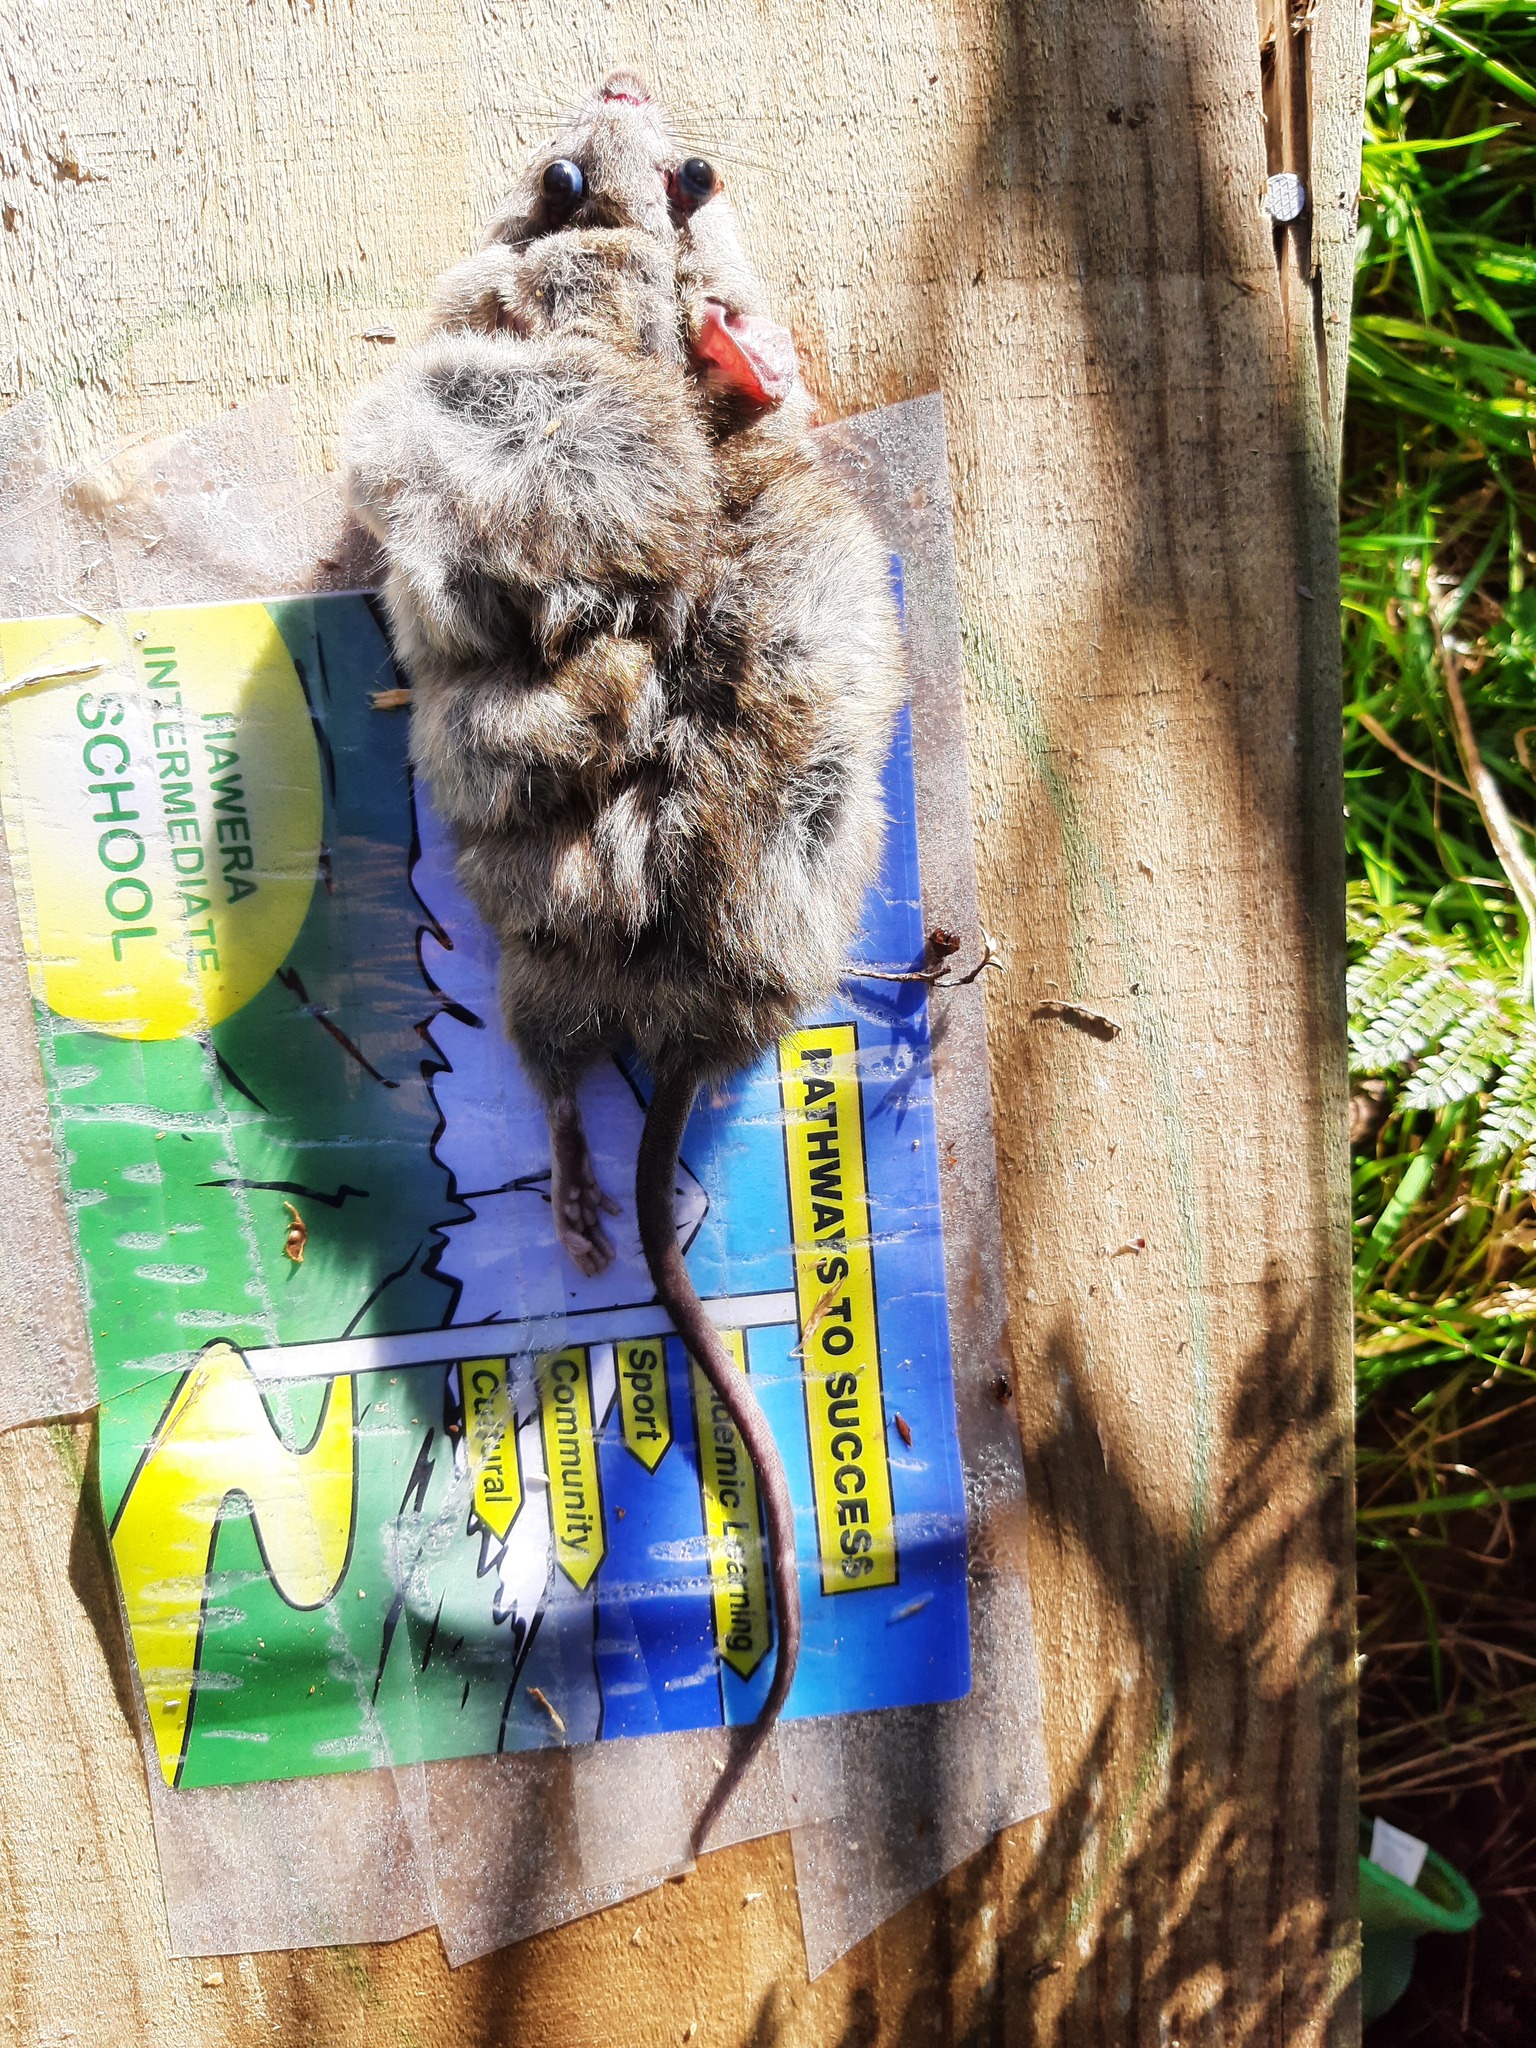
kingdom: Animalia
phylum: Chordata
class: Mammalia
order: Rodentia
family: Muridae
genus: Rattus
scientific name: Rattus rattus
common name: Black rat
